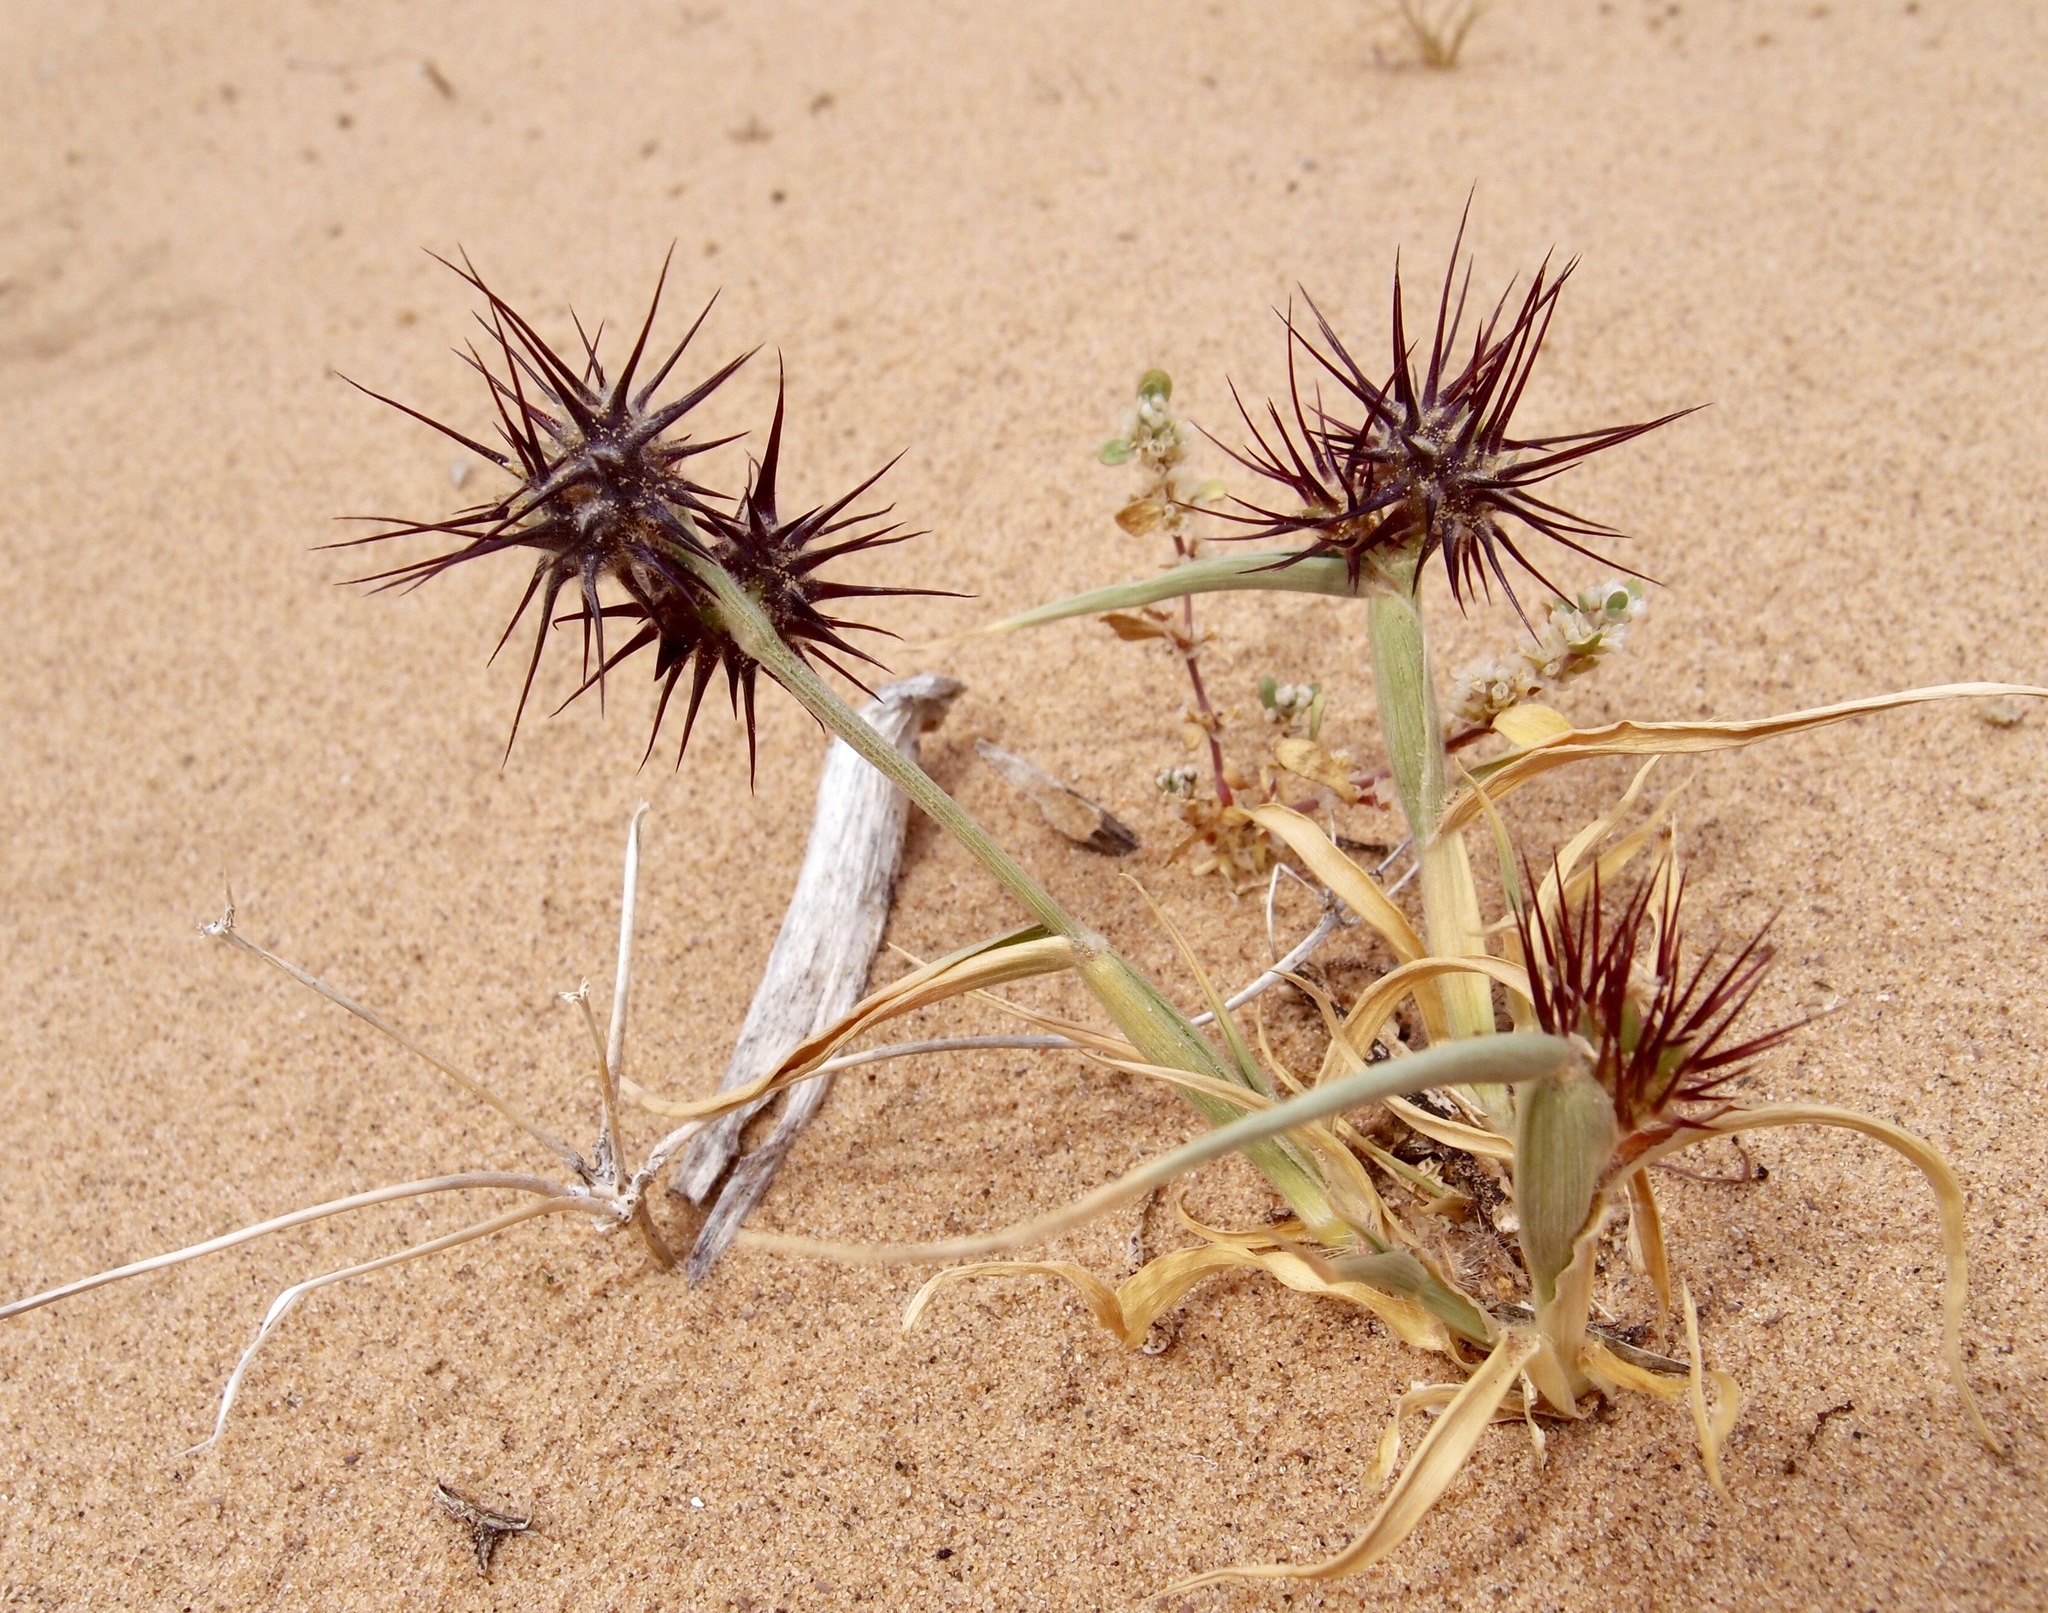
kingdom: Plantae
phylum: Tracheophyta
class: Liliopsida
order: Poales
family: Poaceae
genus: Cenchrus
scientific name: Cenchrus palmeri
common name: Giant sandbur
